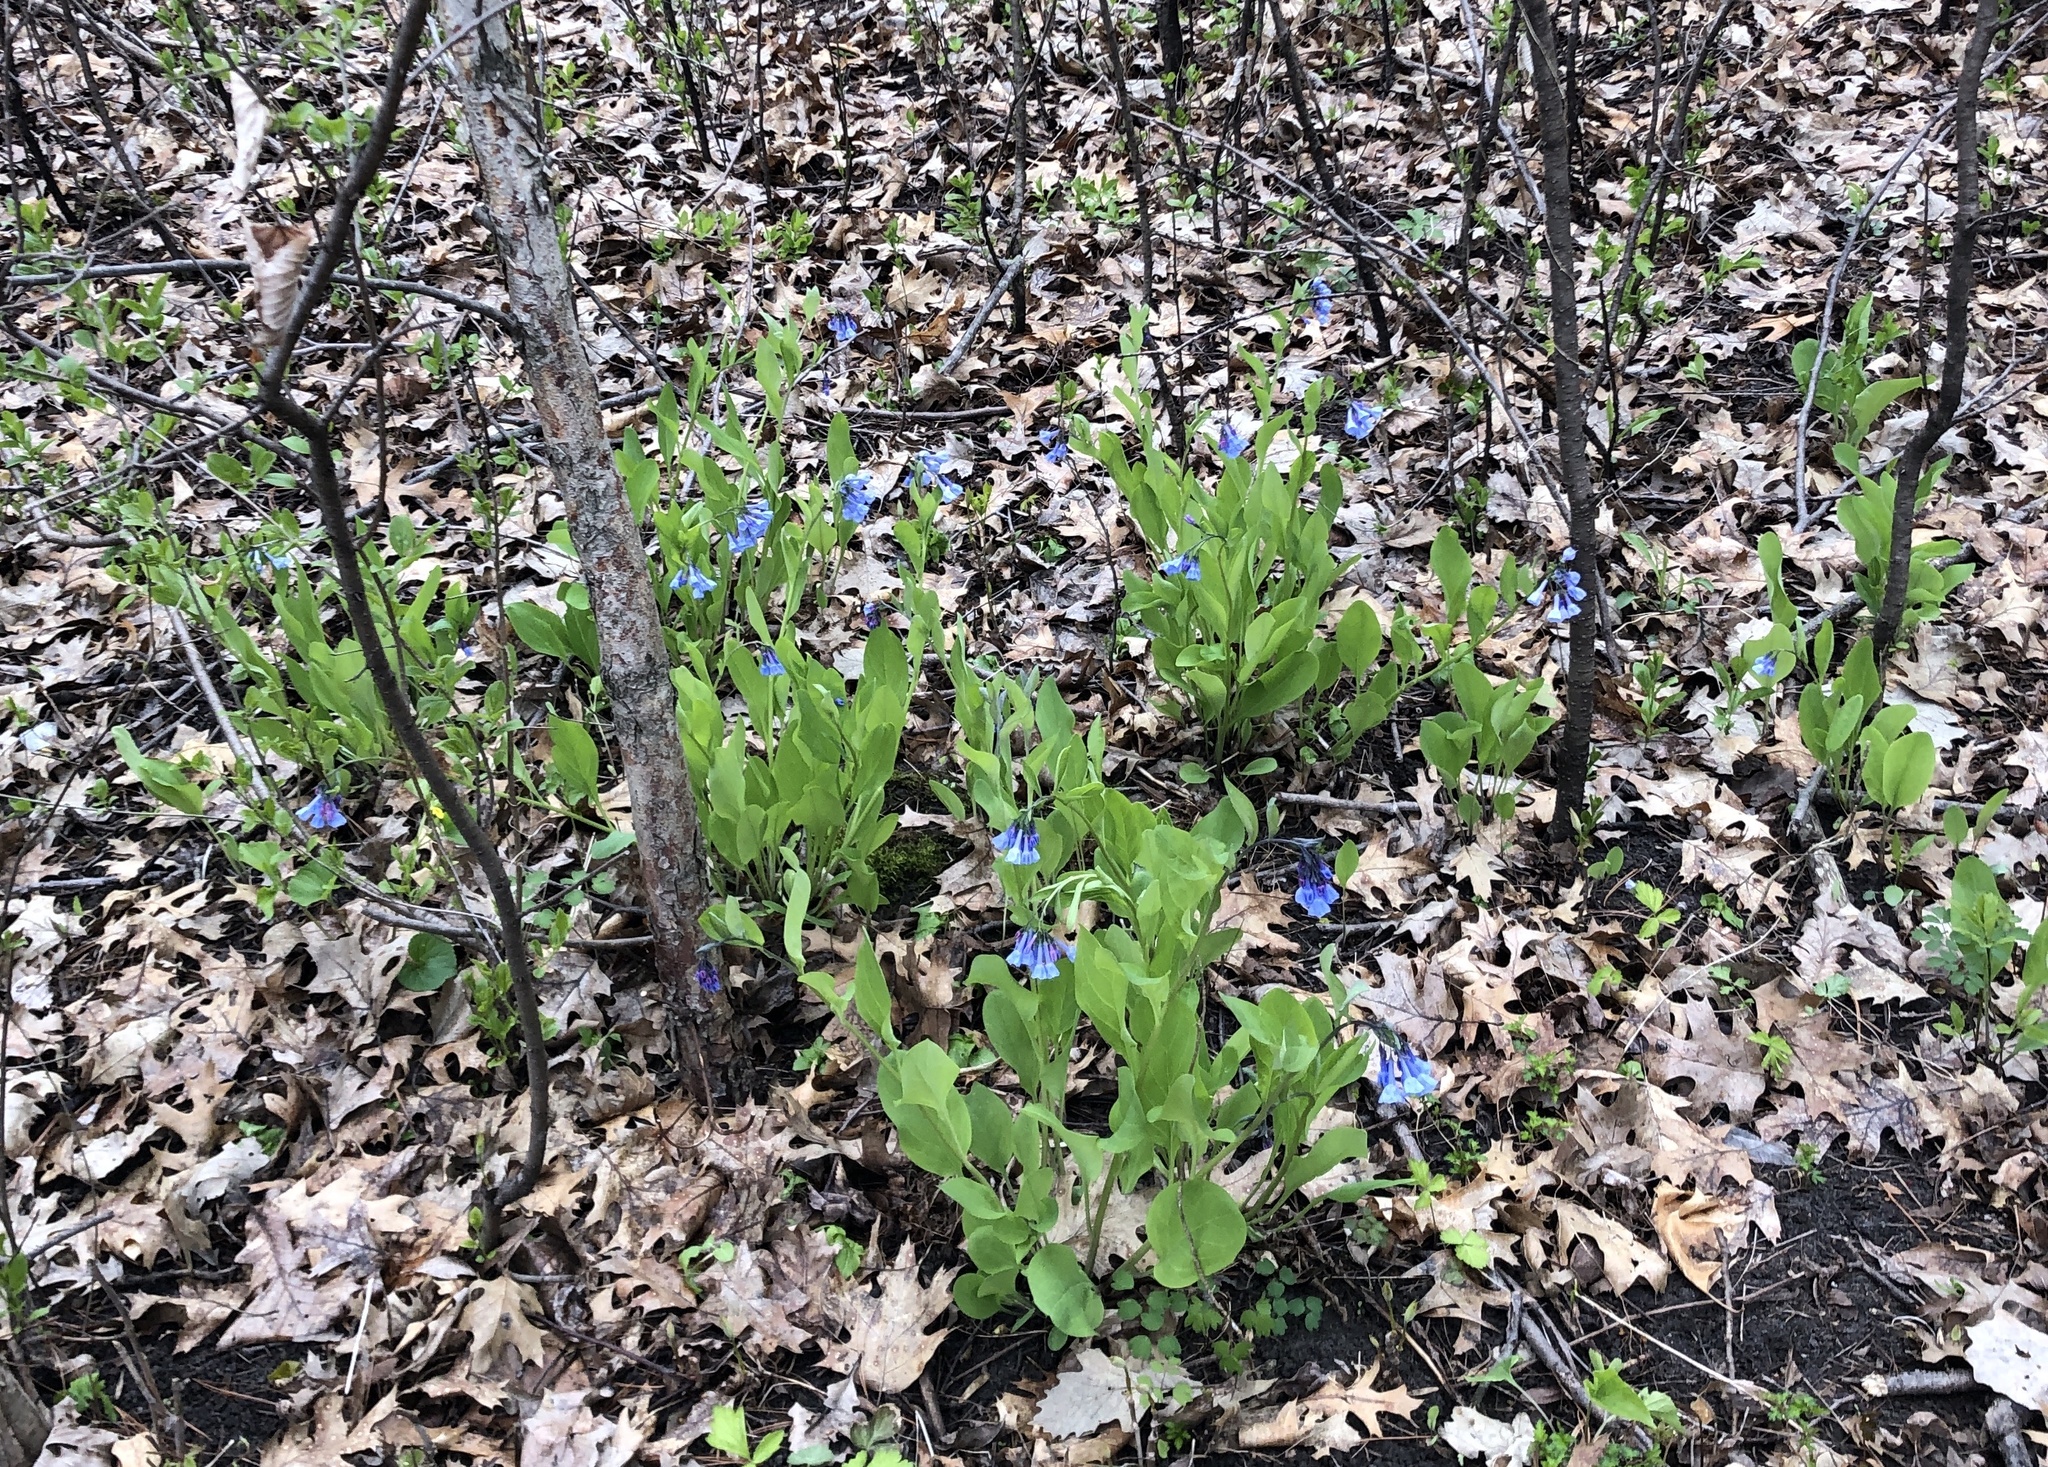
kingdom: Plantae
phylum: Tracheophyta
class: Magnoliopsida
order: Boraginales
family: Boraginaceae
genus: Mertensia
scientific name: Mertensia virginica
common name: Virginia bluebells
